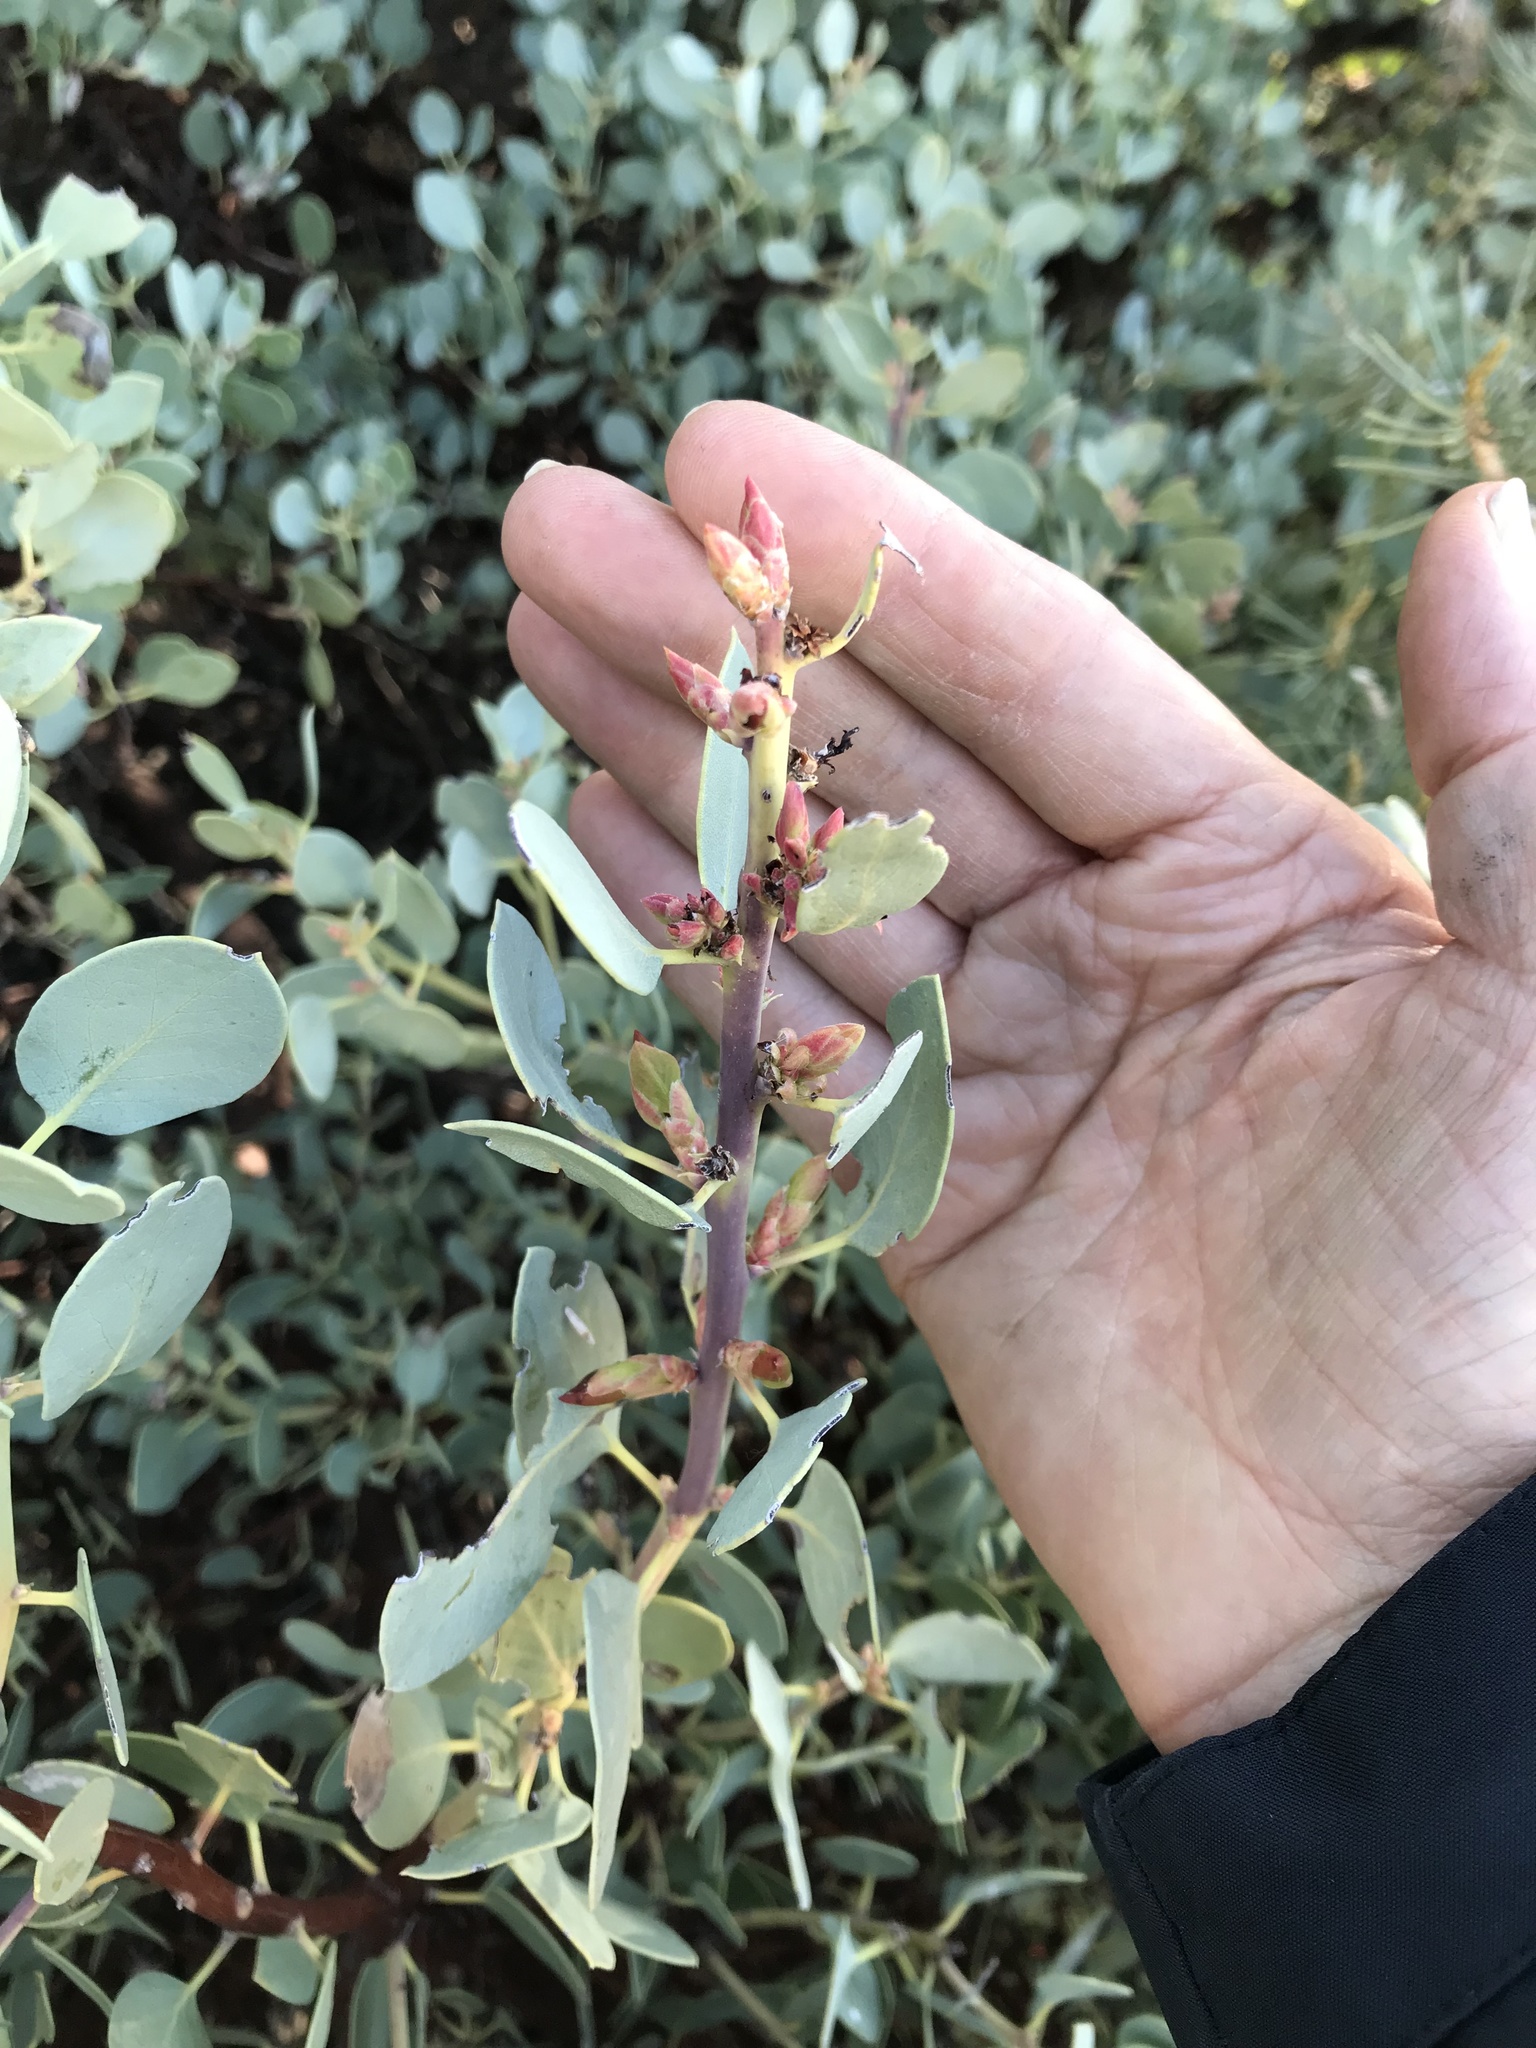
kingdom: Plantae
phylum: Tracheophyta
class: Magnoliopsida
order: Ericales
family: Ericaceae
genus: Arctostaphylos
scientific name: Arctostaphylos glauca
